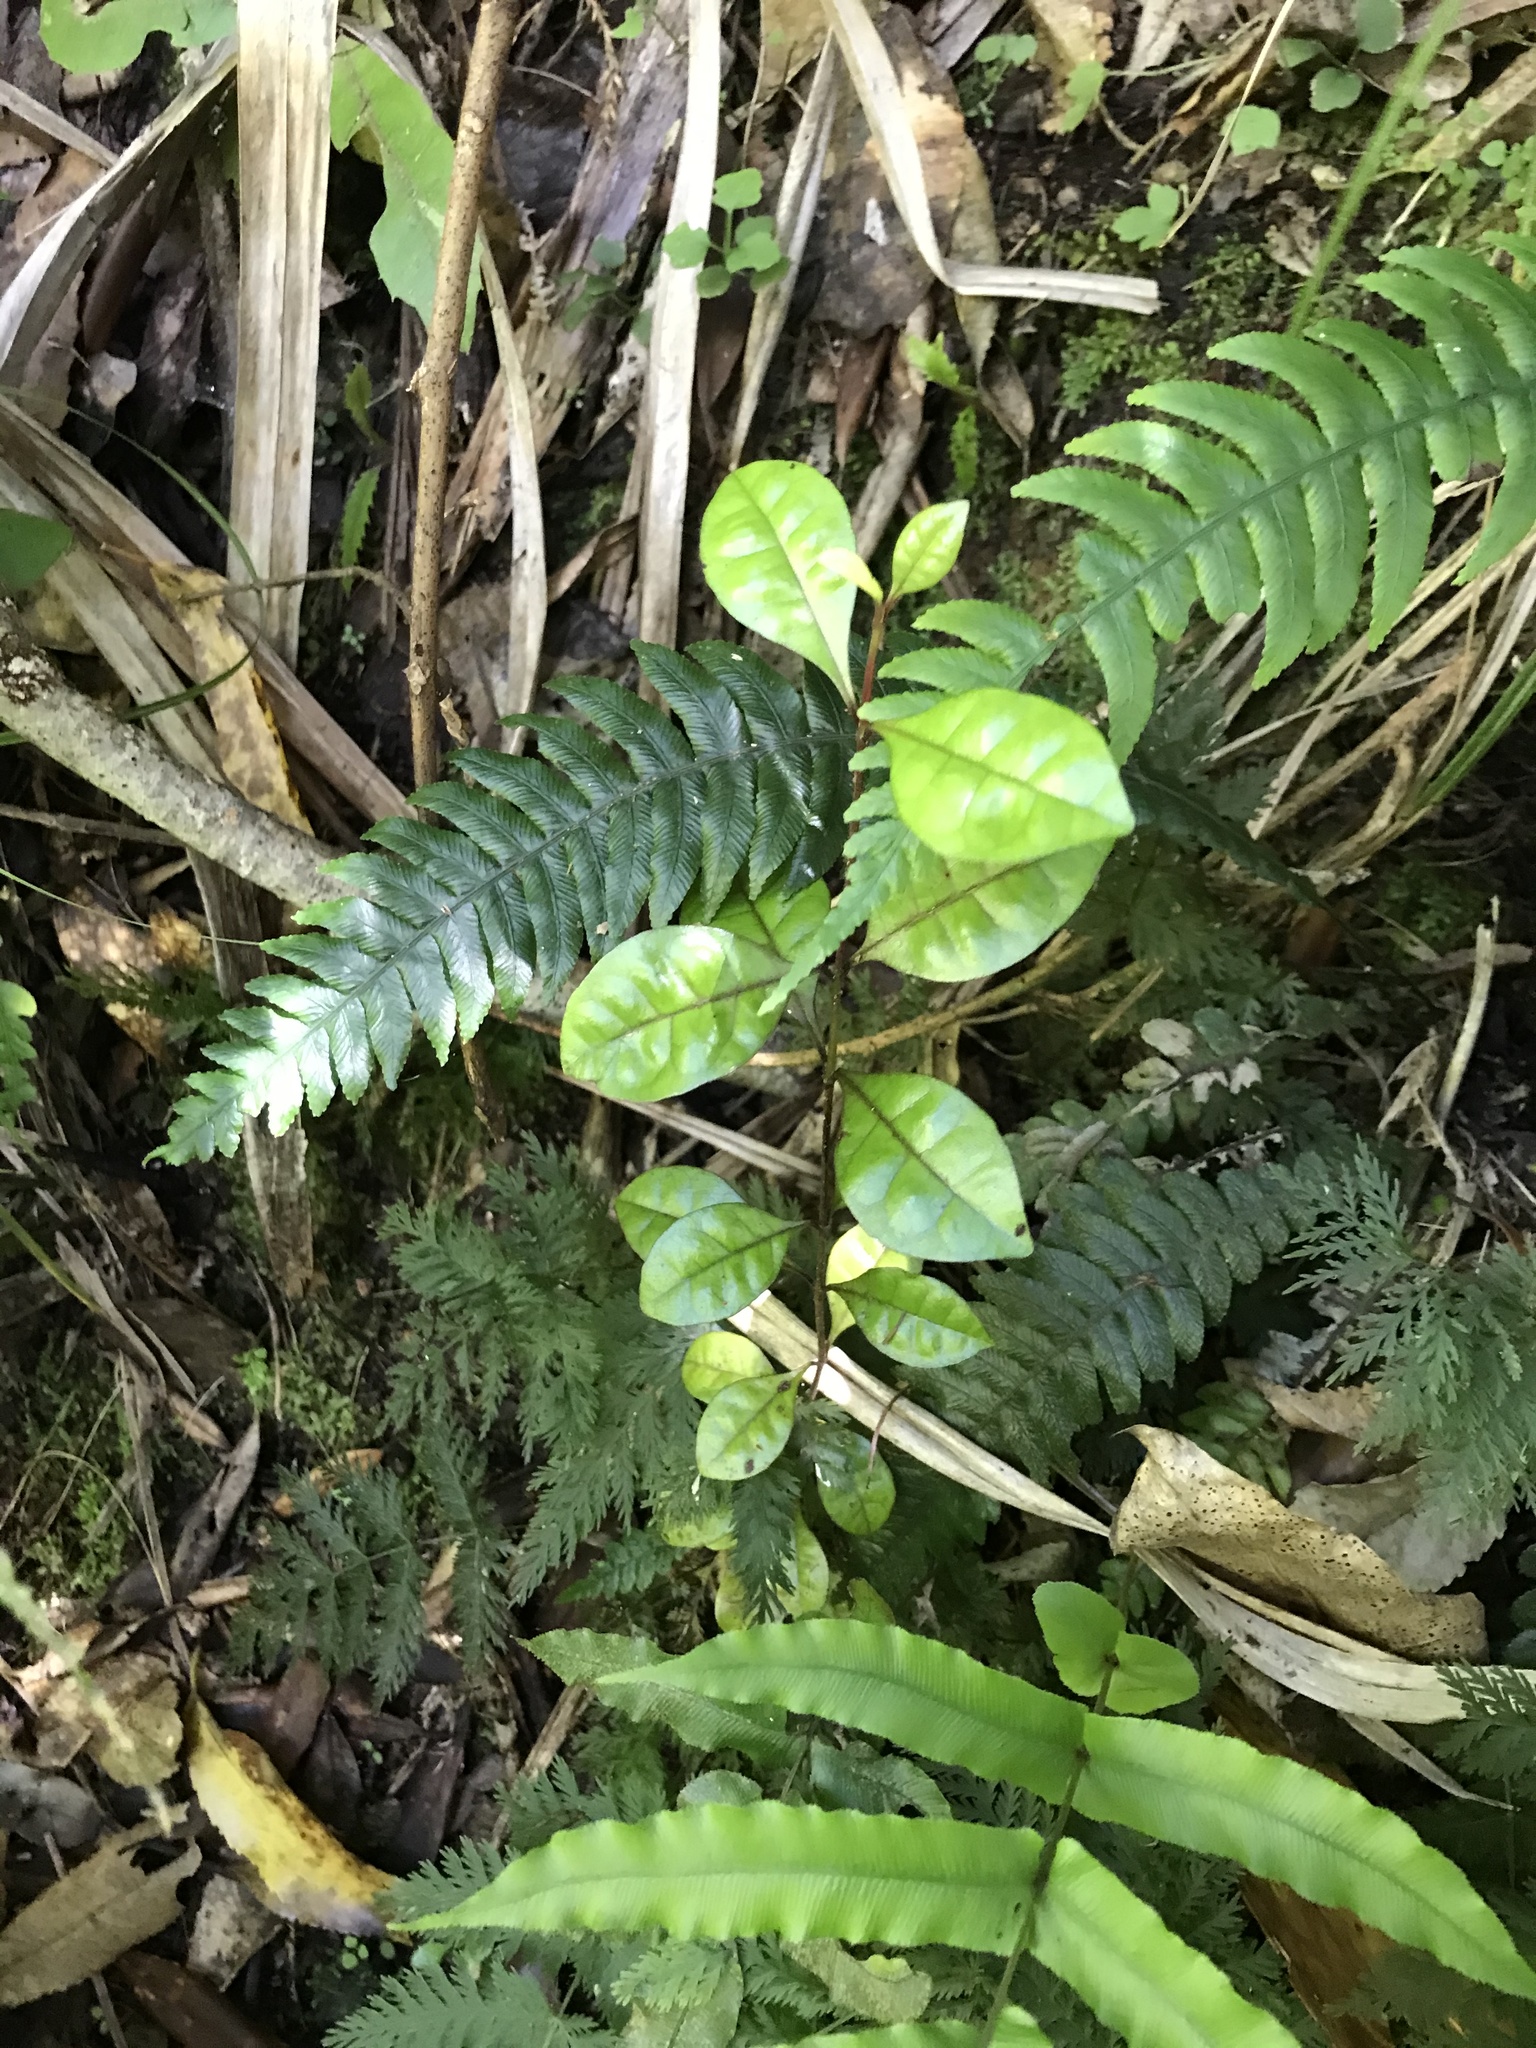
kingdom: Plantae
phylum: Tracheophyta
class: Magnoliopsida
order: Myrtales
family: Myrtaceae
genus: Lophomyrtus
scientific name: Lophomyrtus bullata
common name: Rama rama
